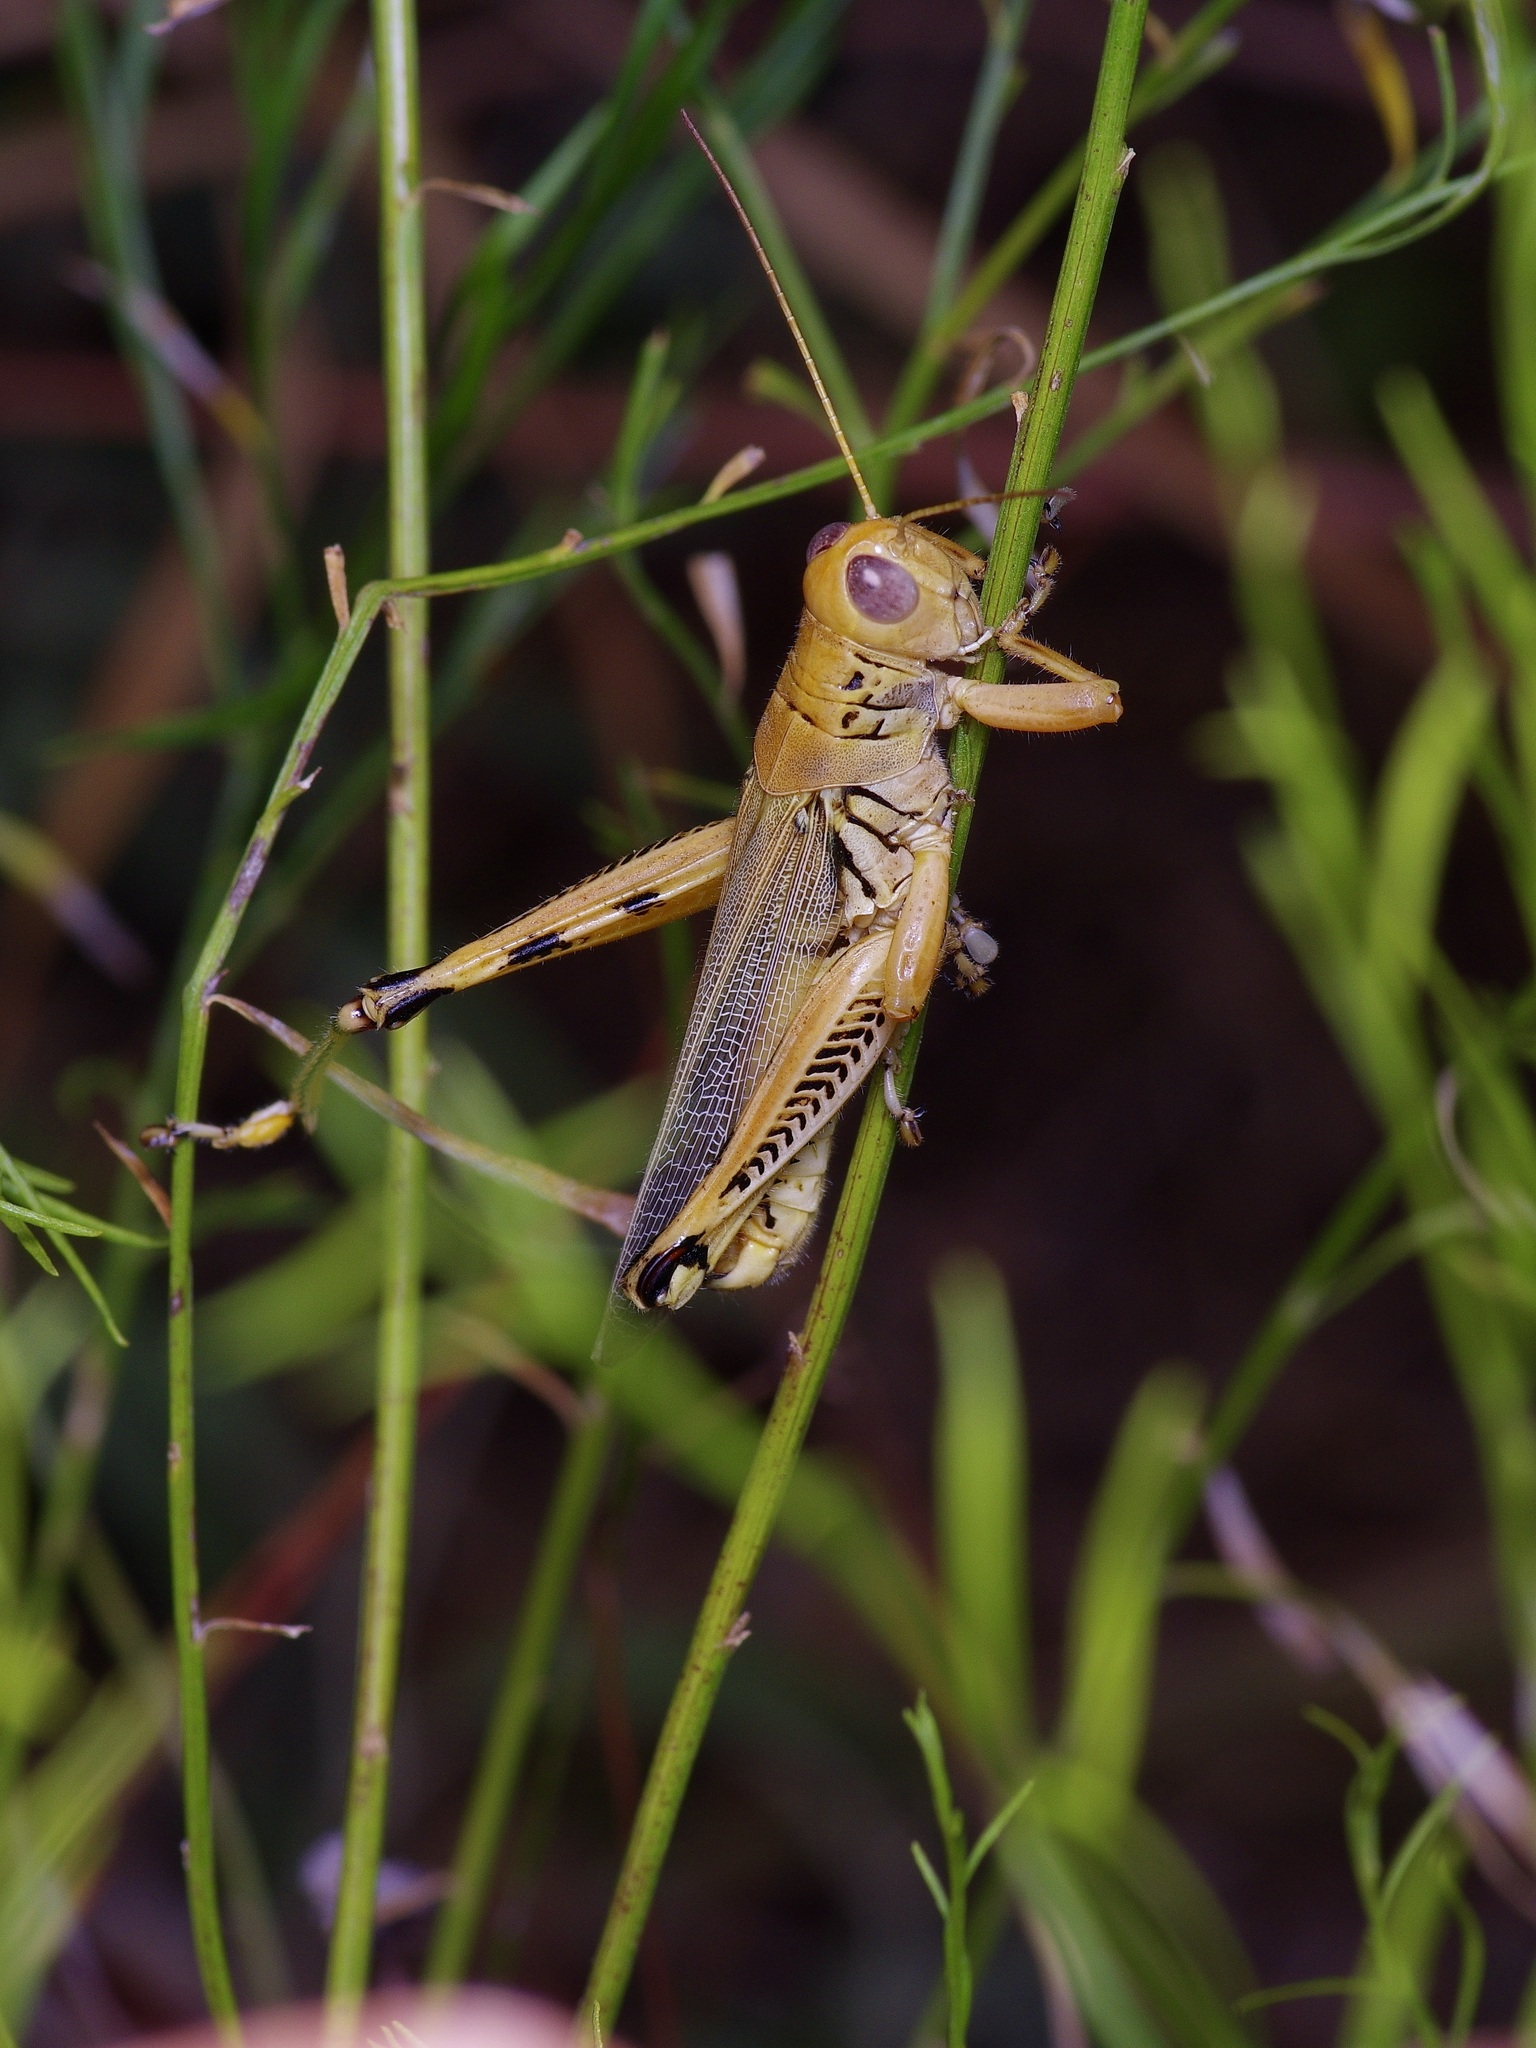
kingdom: Animalia
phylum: Arthropoda
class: Insecta
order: Orthoptera
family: Acrididae
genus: Melanoplus
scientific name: Melanoplus differentialis
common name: Differential grasshopper
